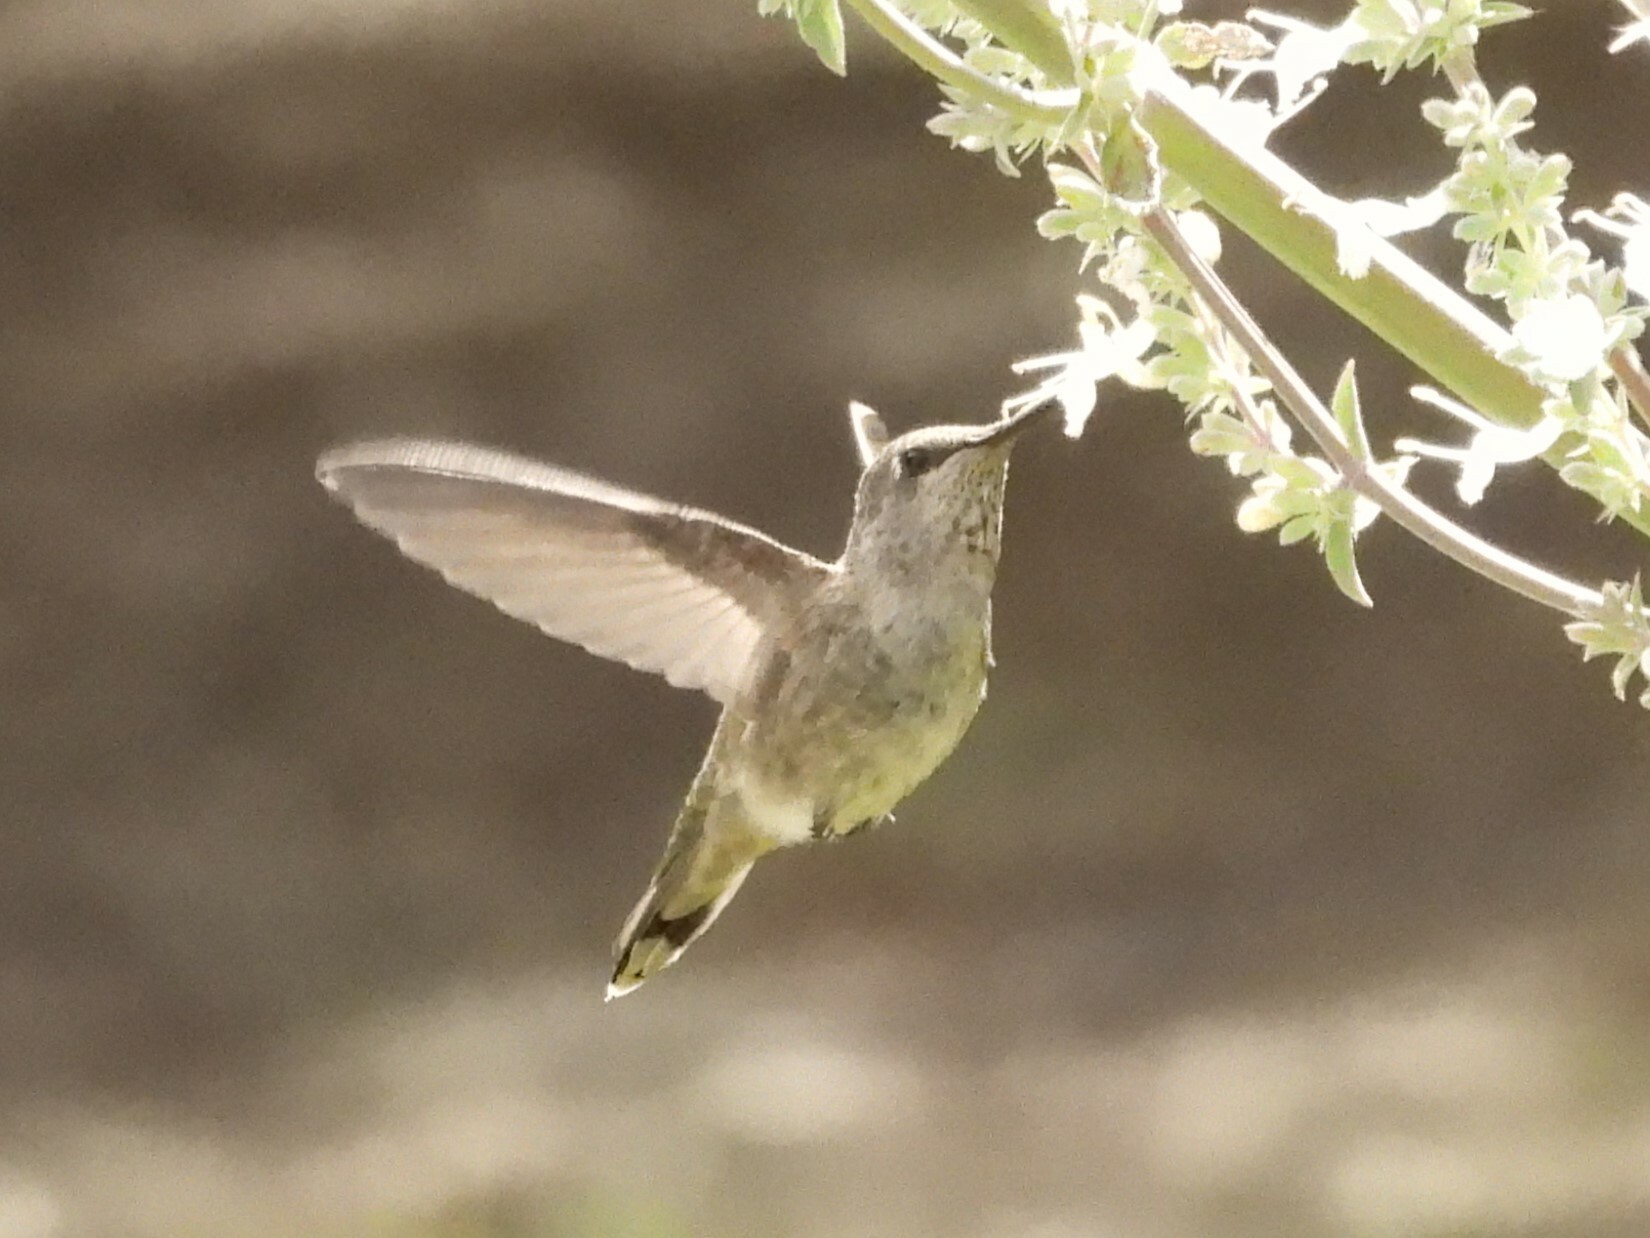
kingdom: Animalia
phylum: Chordata
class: Aves
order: Apodiformes
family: Trochilidae
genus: Calypte
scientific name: Calypte anna
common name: Anna's hummingbird
